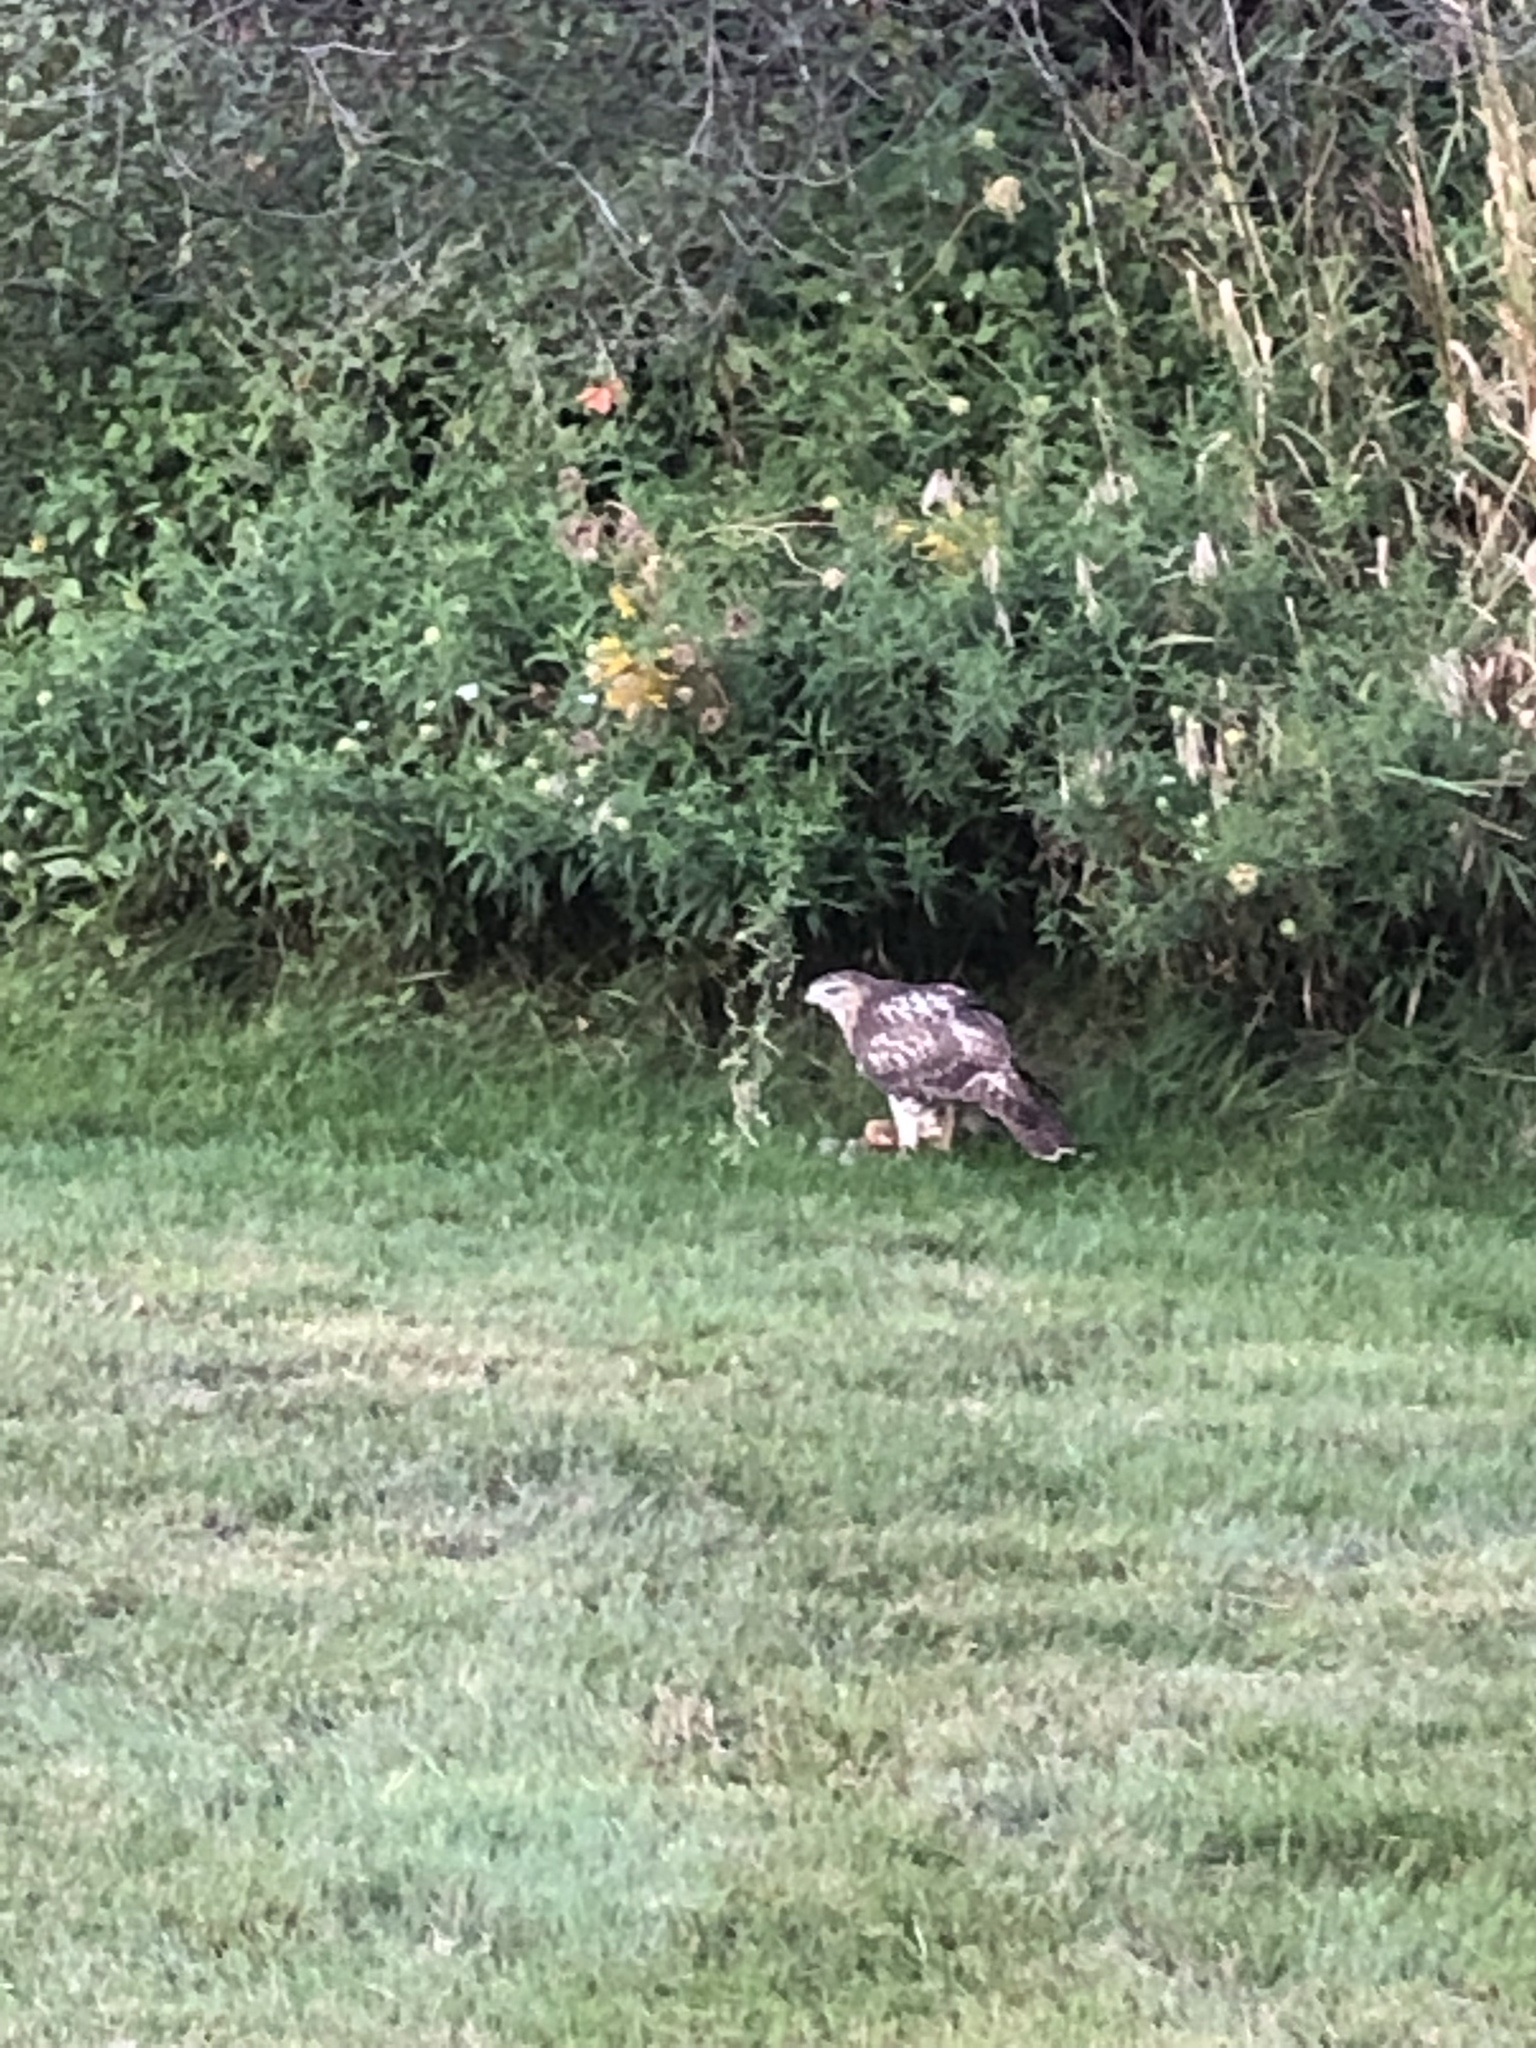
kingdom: Animalia
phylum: Chordata
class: Aves
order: Accipitriformes
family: Accipitridae
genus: Buteo
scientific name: Buteo jamaicensis
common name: Red-tailed hawk
